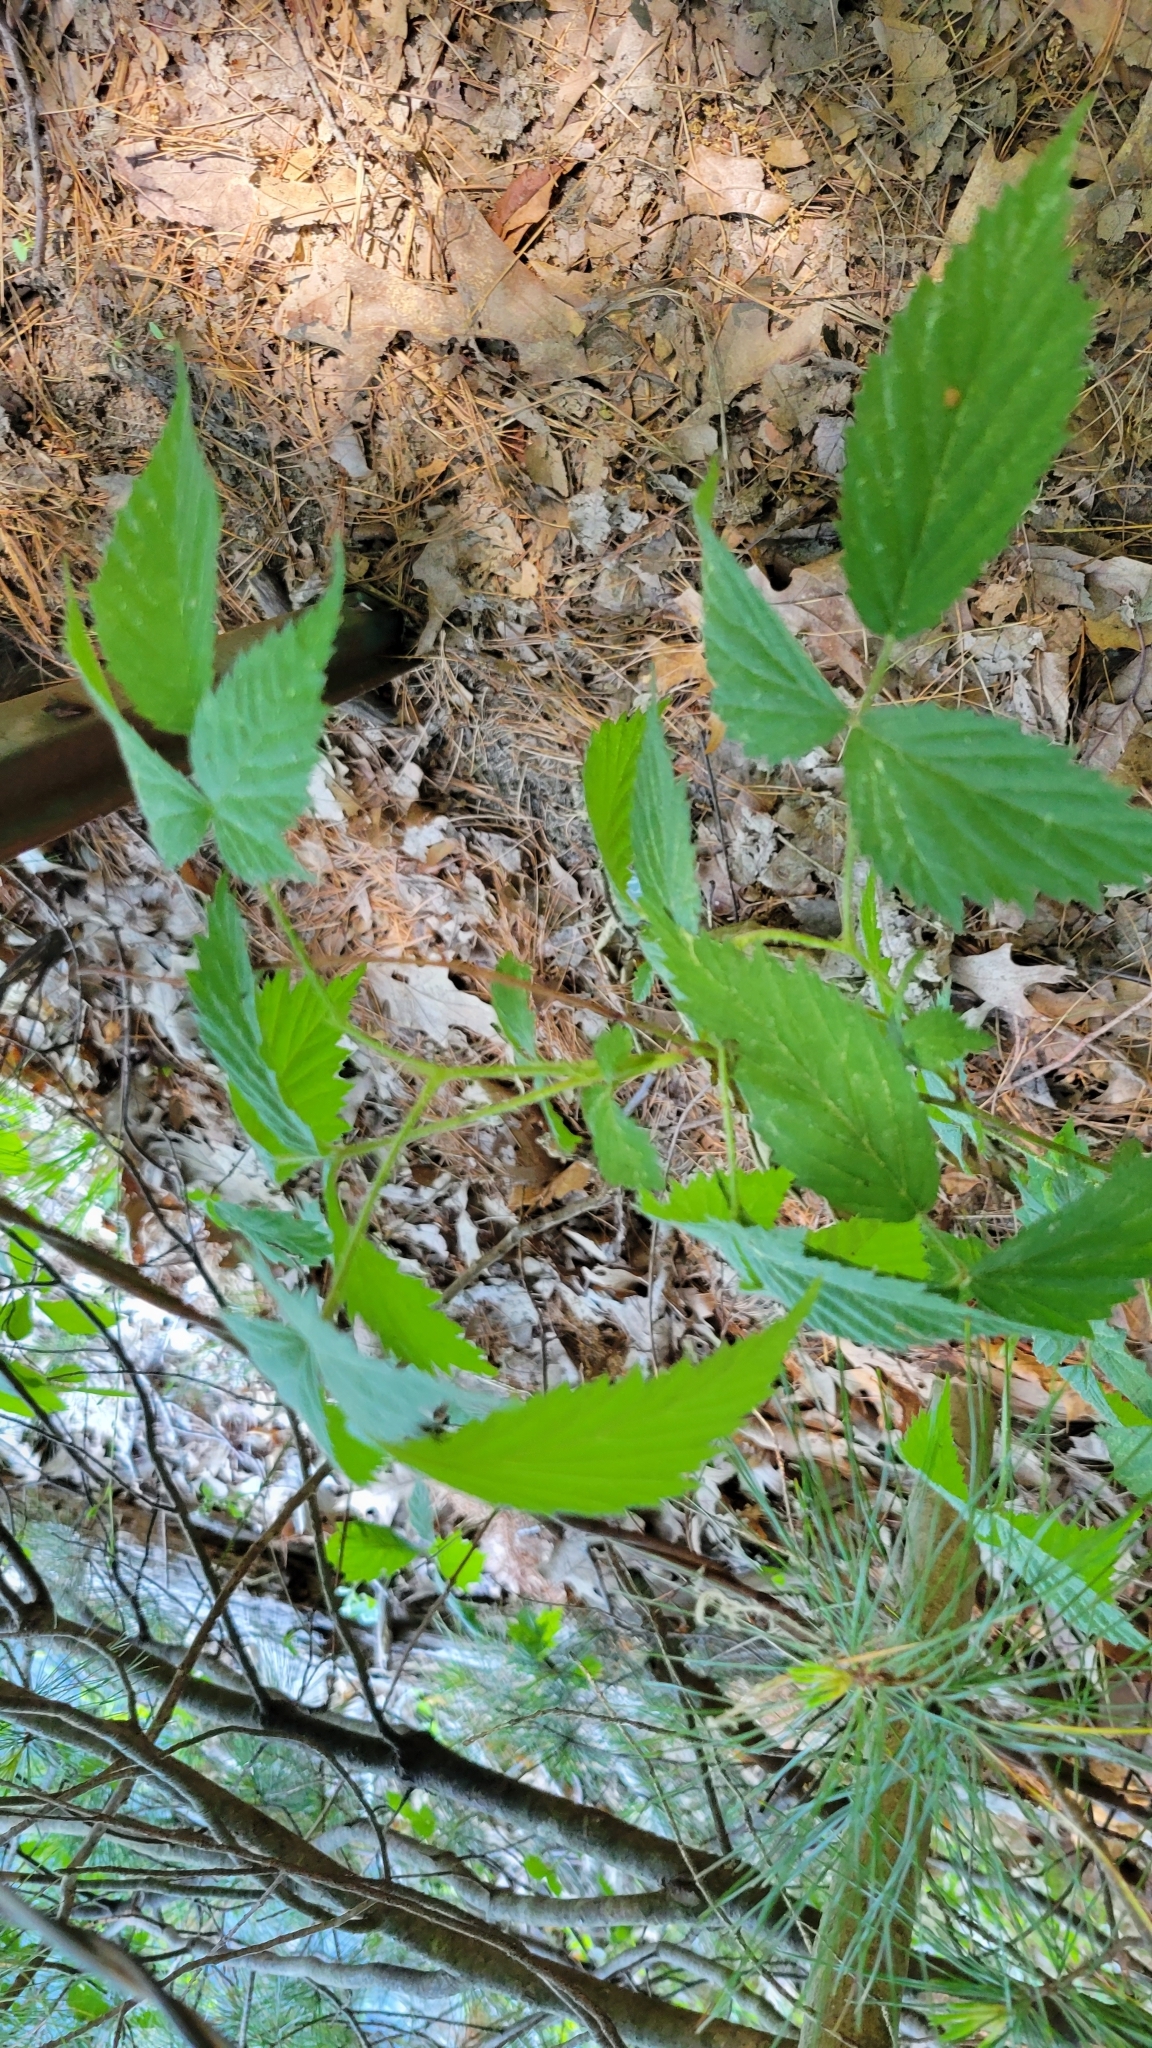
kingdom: Plantae
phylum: Tracheophyta
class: Magnoliopsida
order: Rosales
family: Rosaceae
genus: Rubus
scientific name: Rubus idaeus
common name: Raspberry
